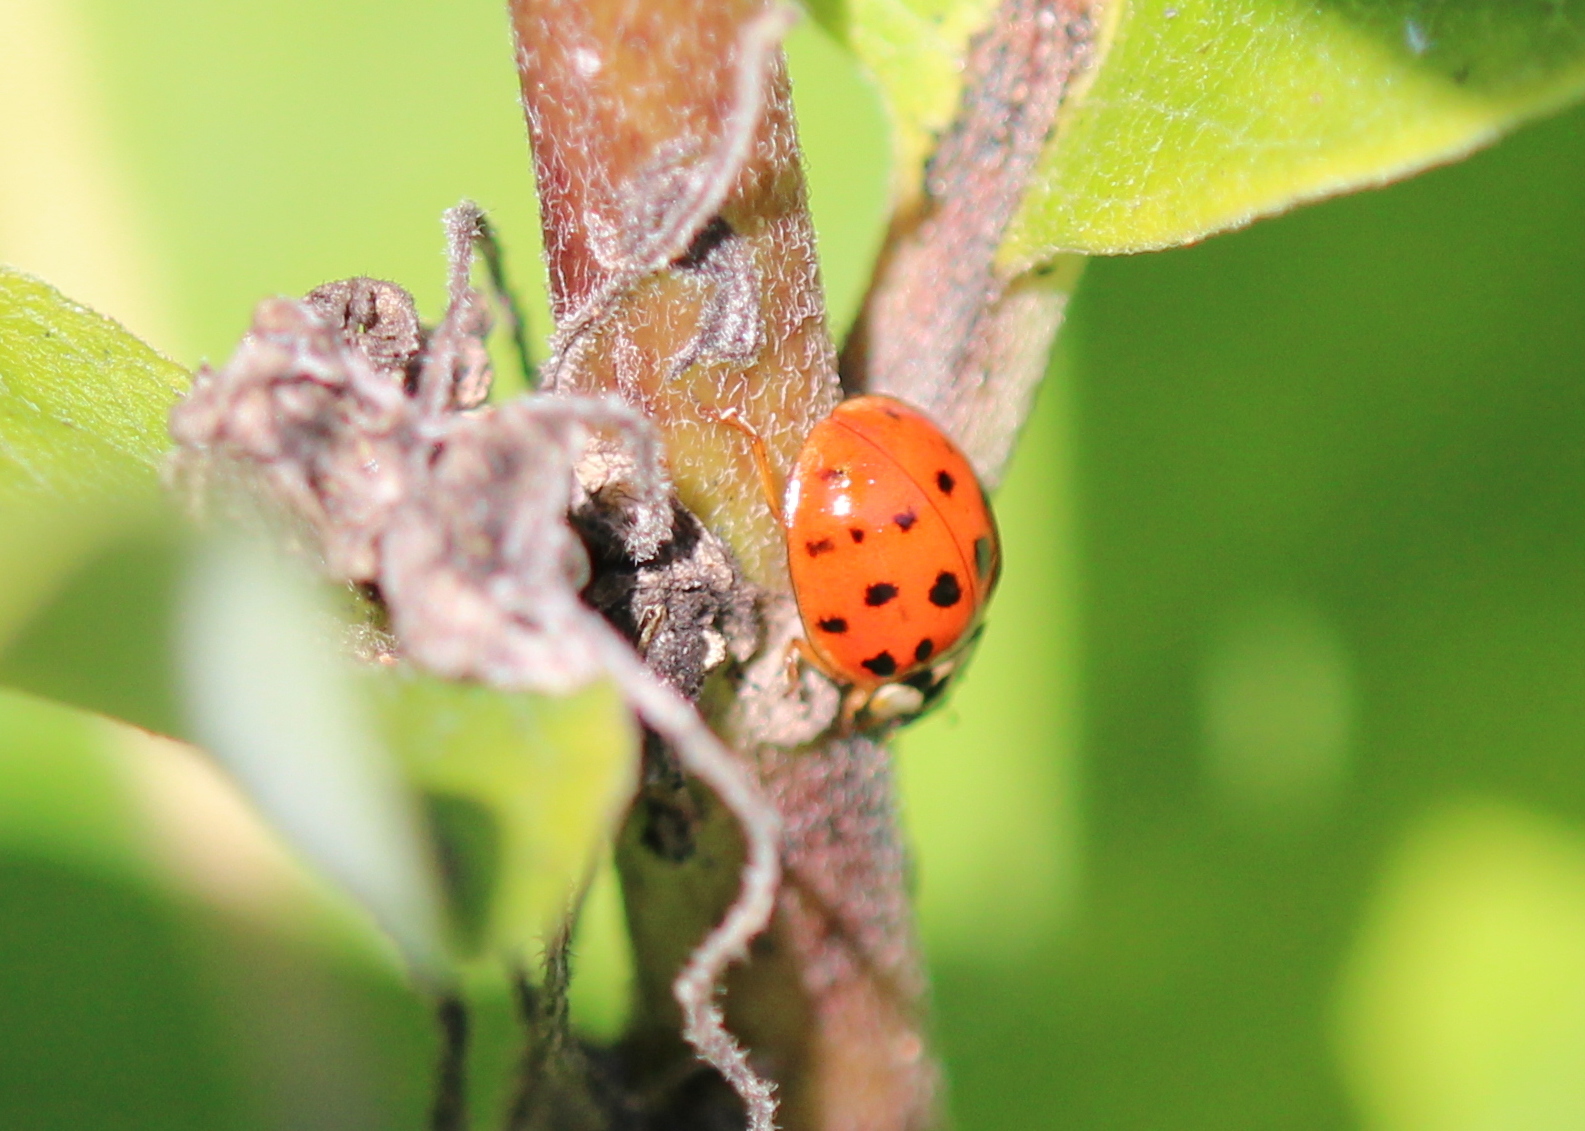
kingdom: Animalia
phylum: Arthropoda
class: Insecta
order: Coleoptera
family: Coccinellidae
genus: Harmonia
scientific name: Harmonia axyridis
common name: Harlequin ladybird
